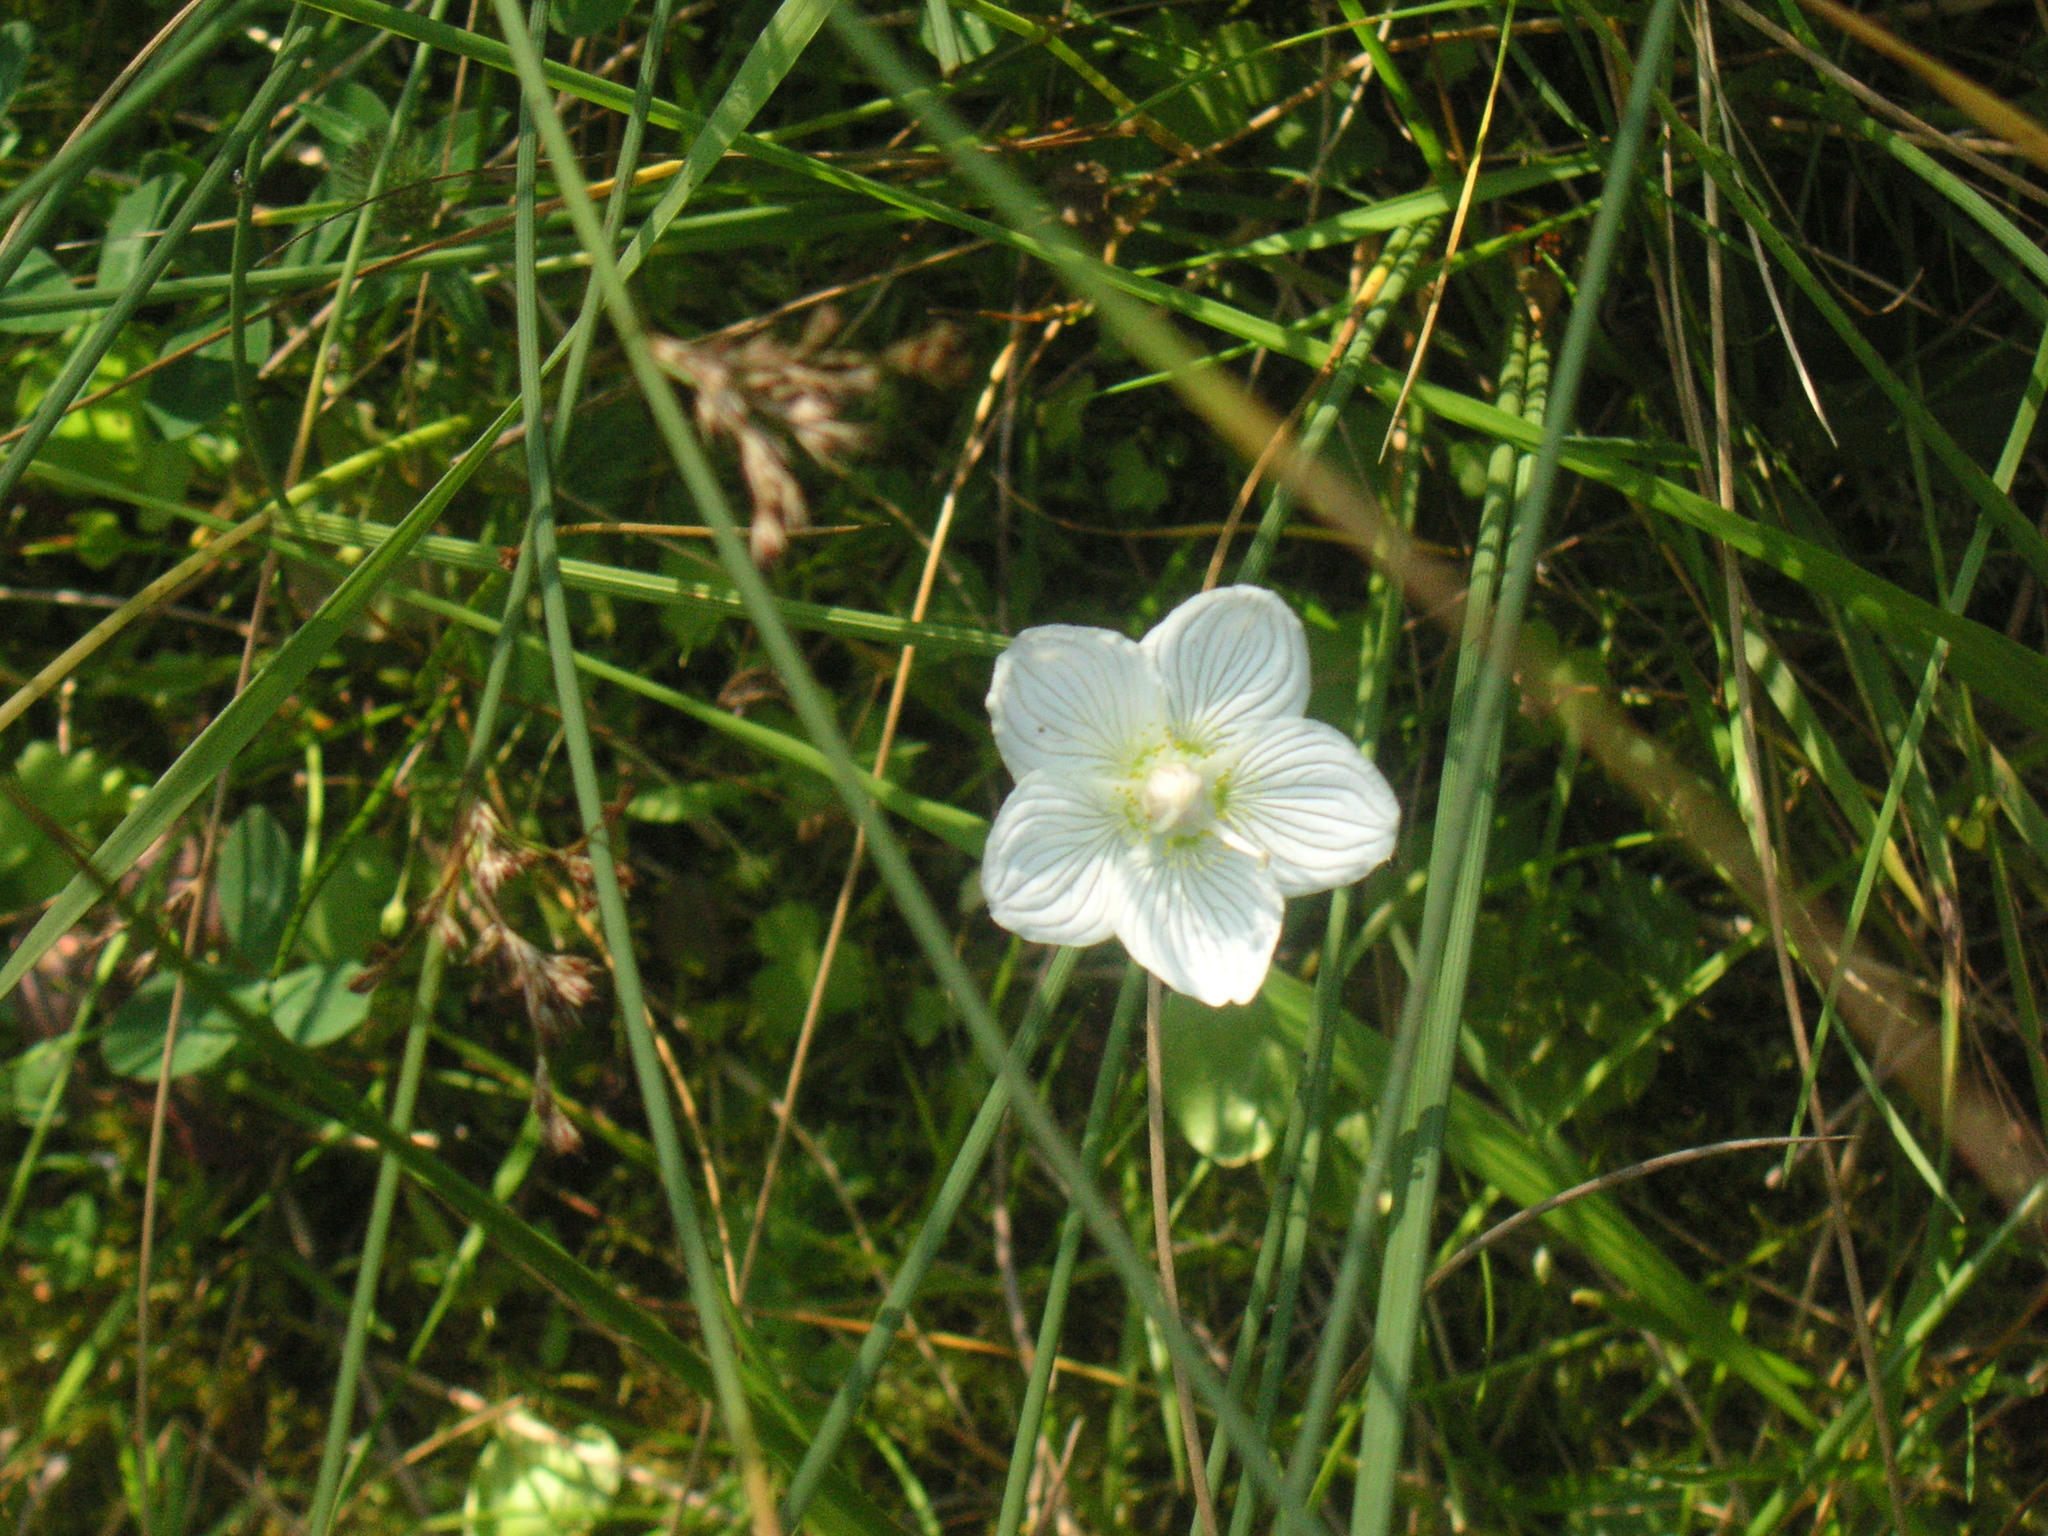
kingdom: Plantae
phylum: Tracheophyta
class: Magnoliopsida
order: Celastrales
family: Parnassiaceae
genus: Parnassia
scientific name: Parnassia palustris
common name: Grass-of-parnassus
